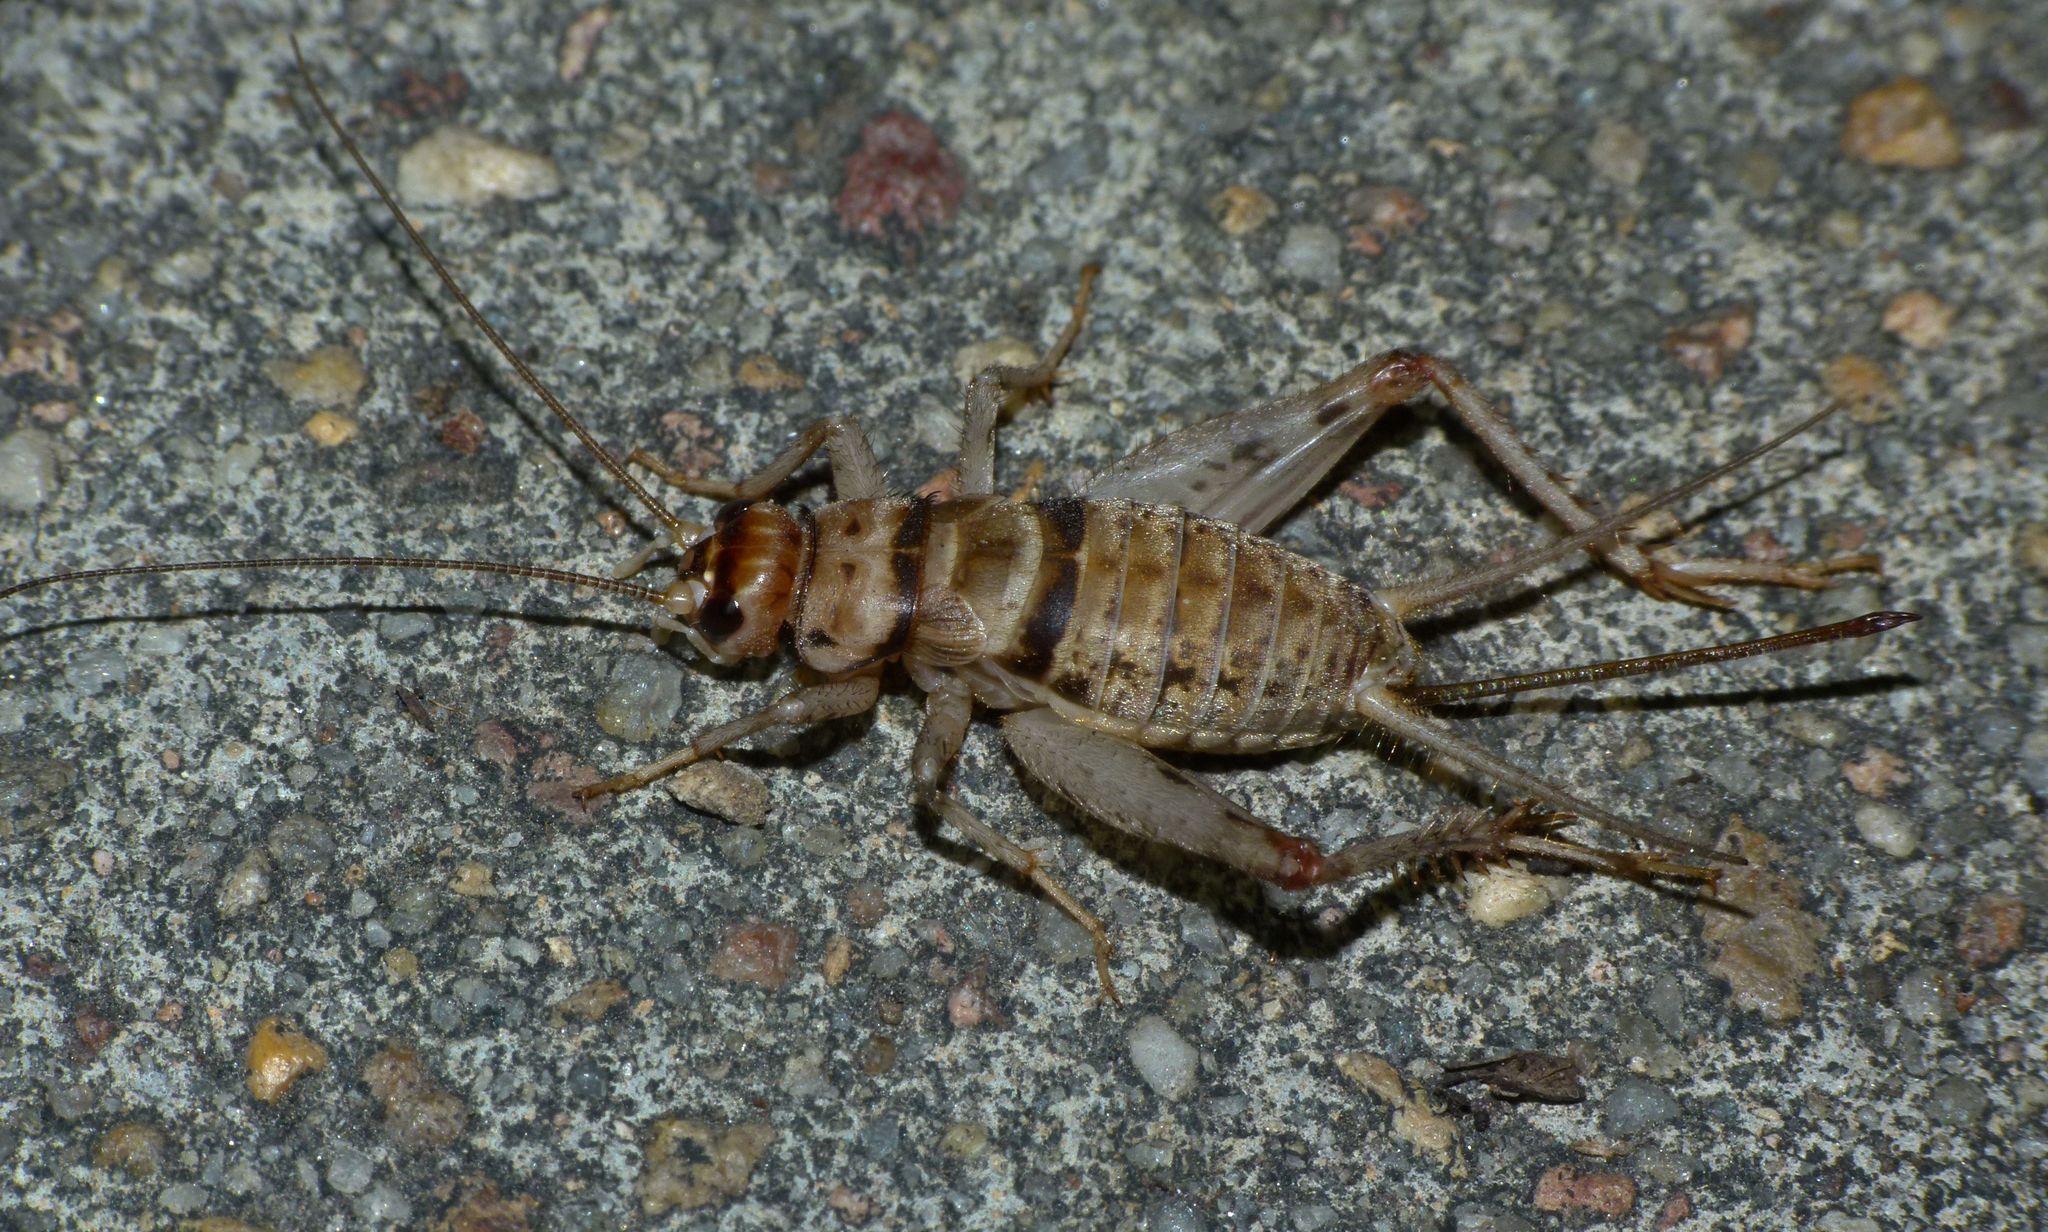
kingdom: Animalia
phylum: Arthropoda
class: Insecta
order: Orthoptera
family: Gryllidae
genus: Gryllodes
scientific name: Gryllodes sigillatus
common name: Tropical house cricket
